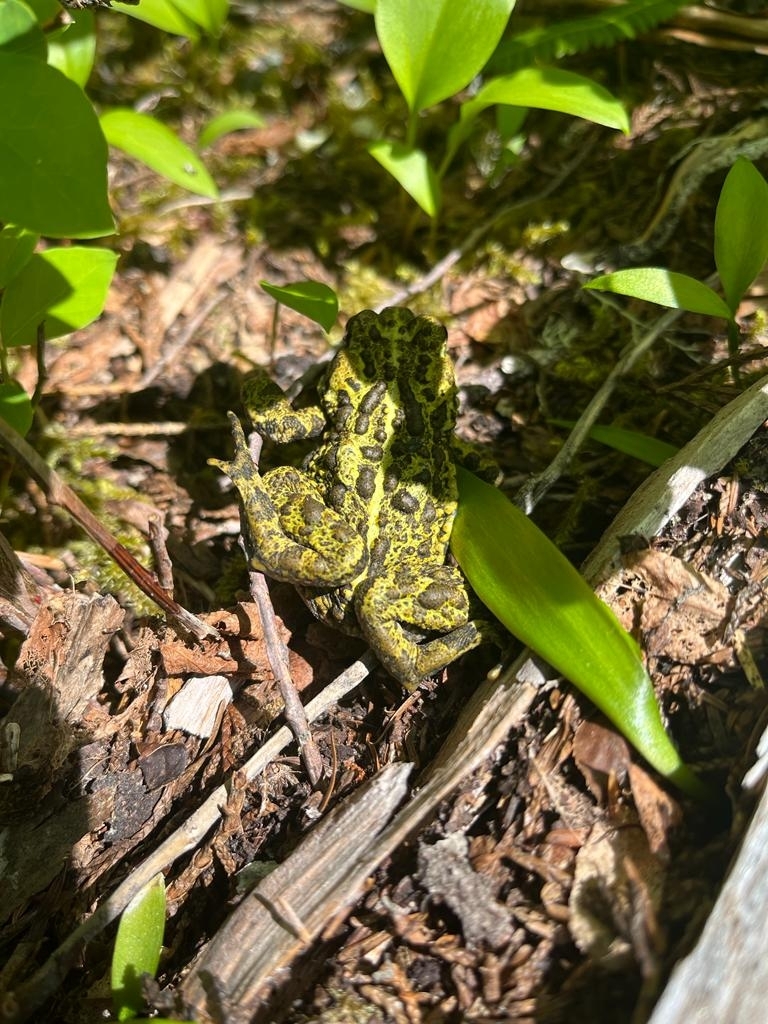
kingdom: Animalia
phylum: Chordata
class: Amphibia
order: Anura
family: Bufonidae
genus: Anaxyrus
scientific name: Anaxyrus boreas
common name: Western toad
